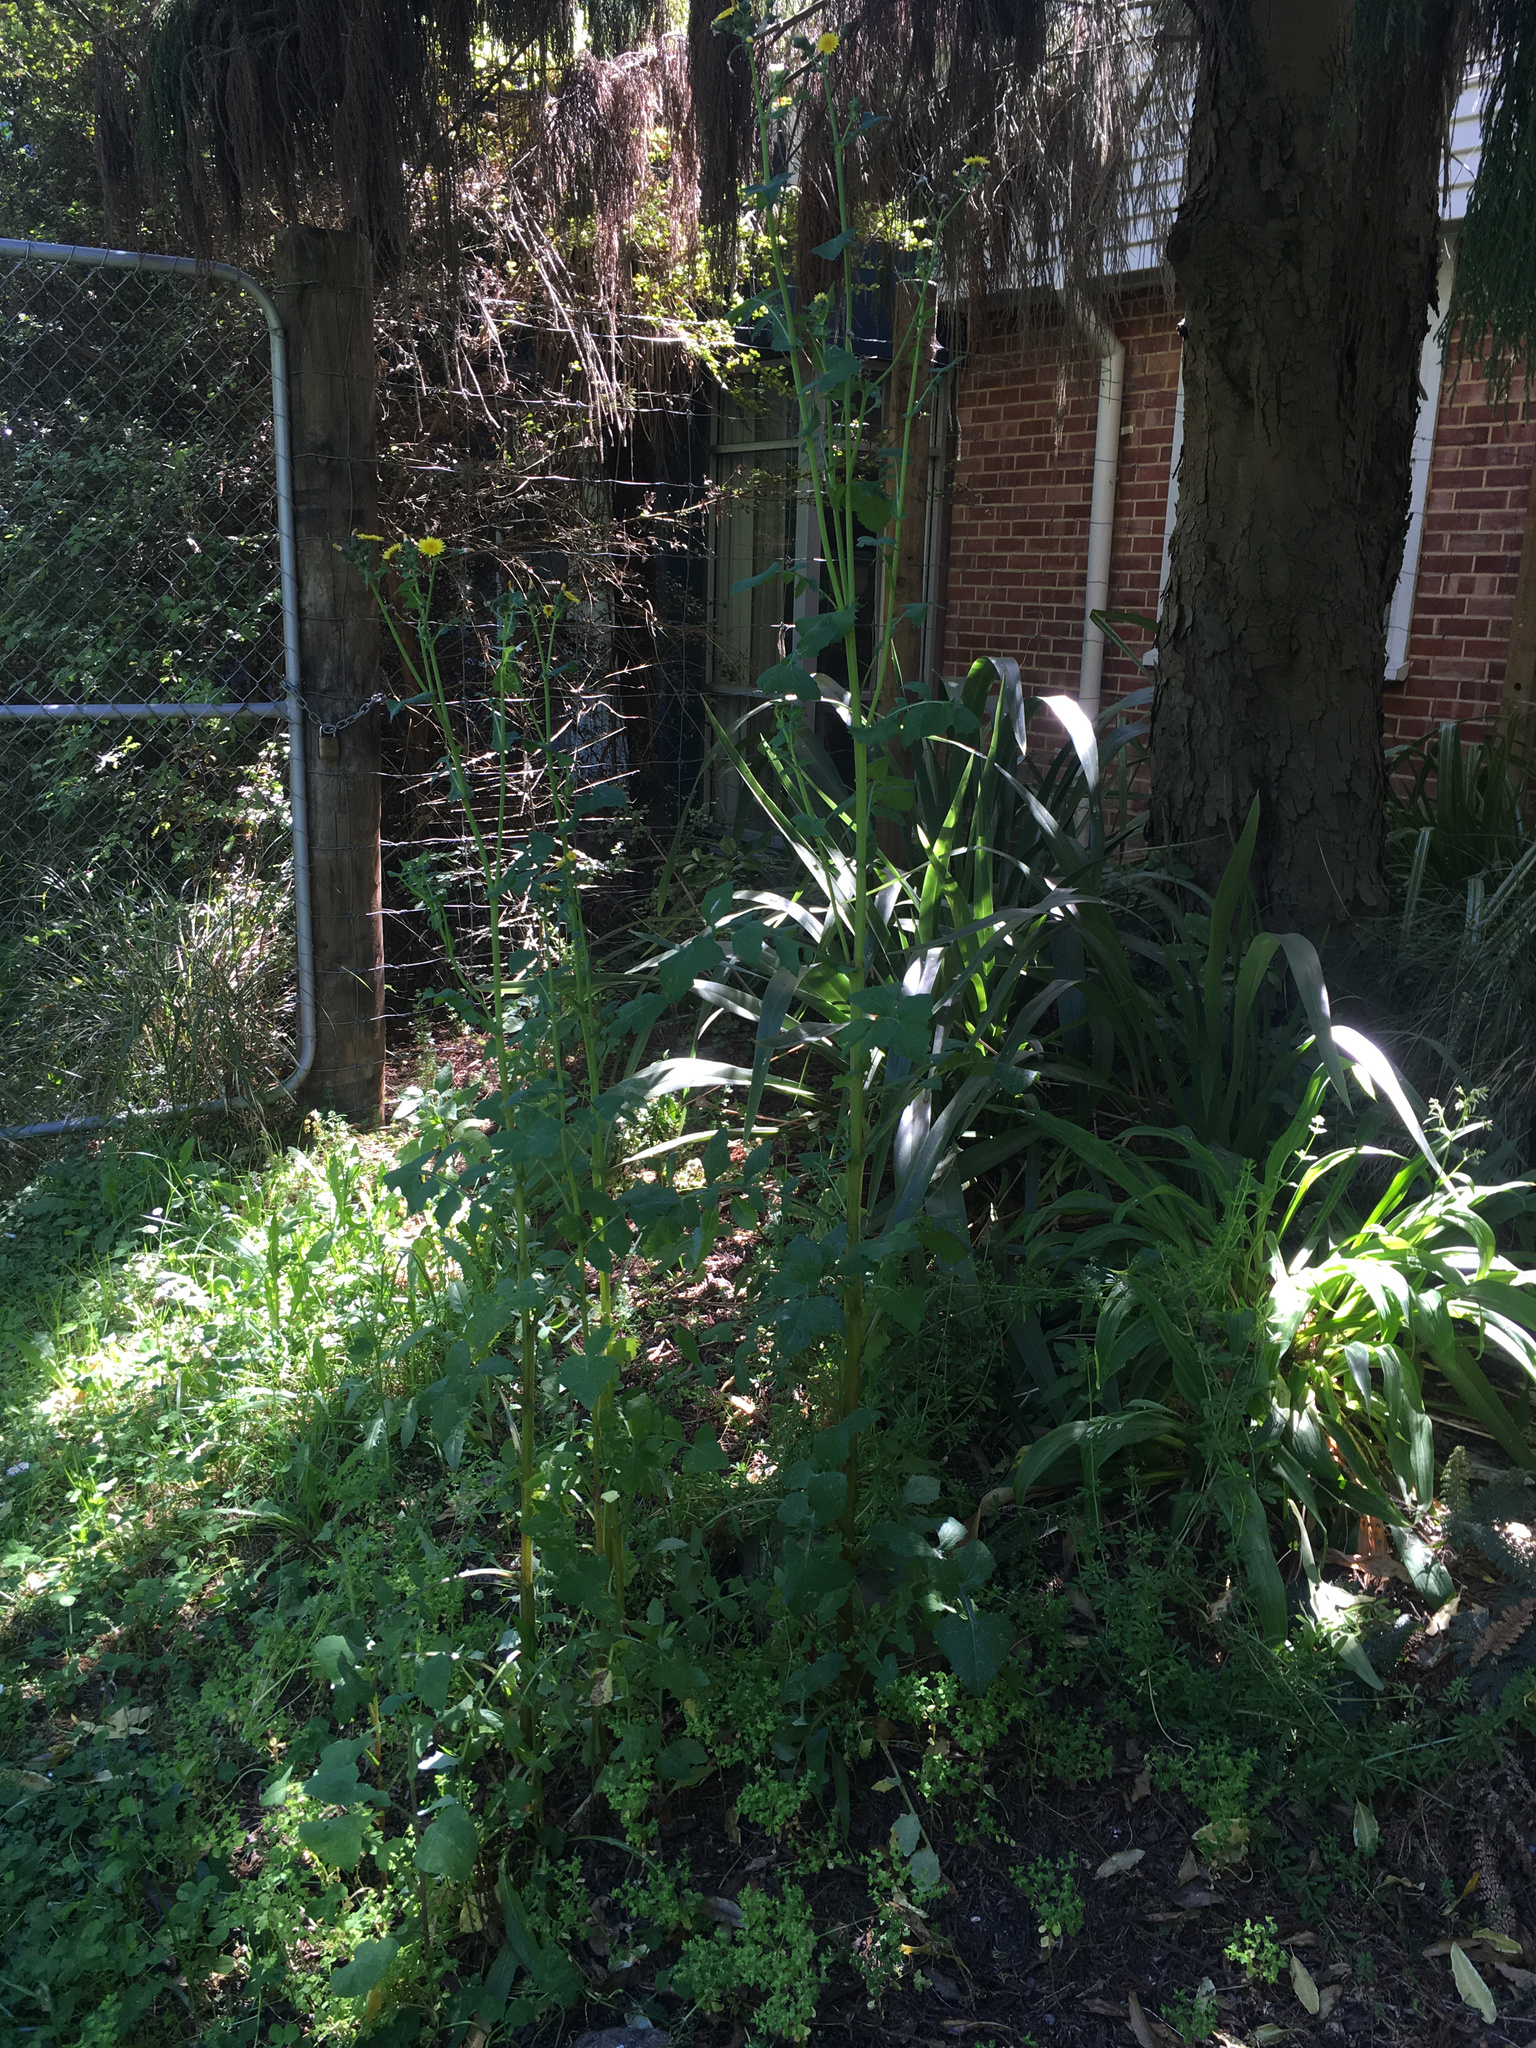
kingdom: Plantae
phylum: Tracheophyta
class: Magnoliopsida
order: Asterales
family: Asteraceae
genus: Sonchus
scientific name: Sonchus oleraceus
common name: Common sowthistle
